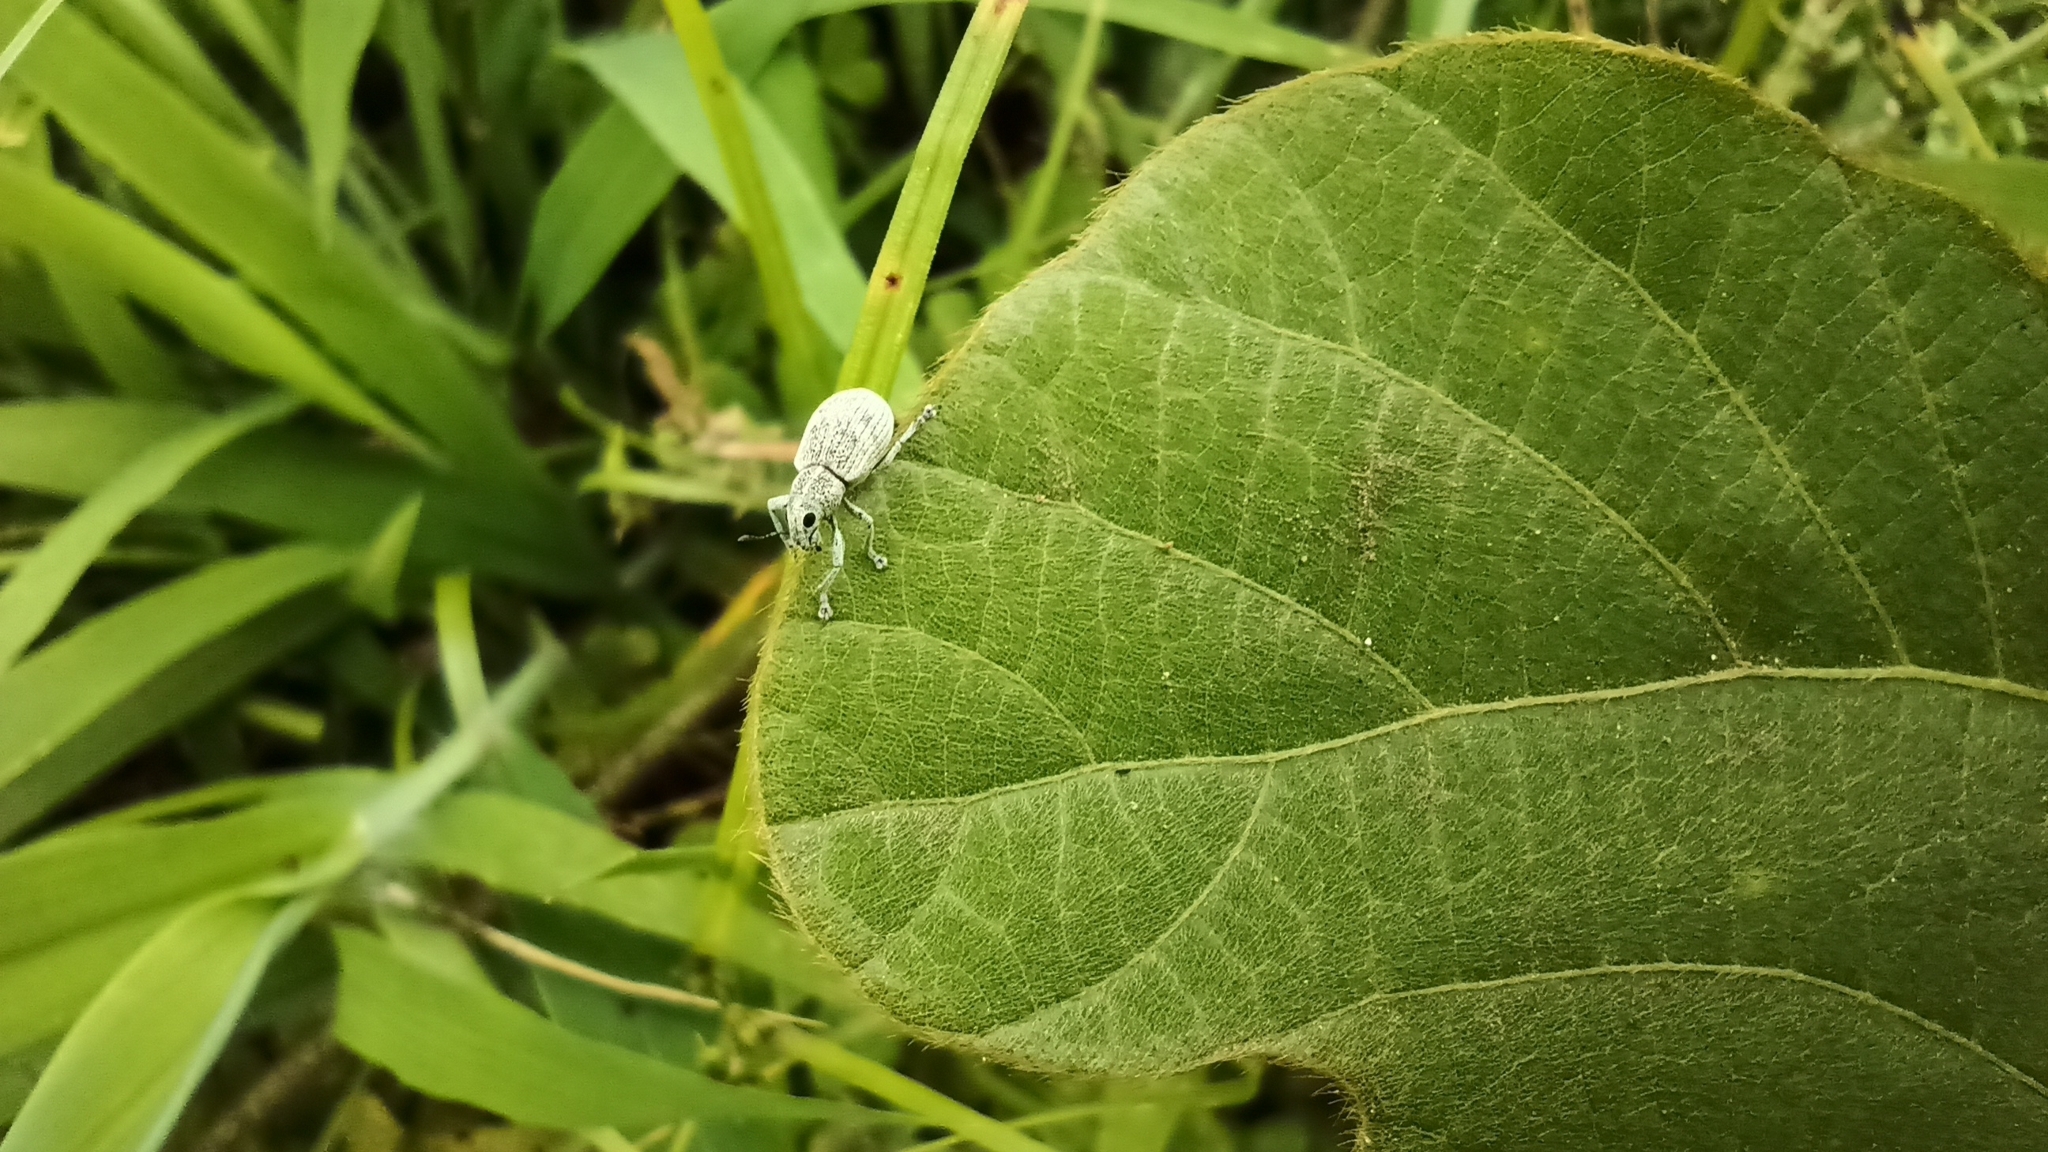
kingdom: Animalia
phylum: Arthropoda
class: Insecta
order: Coleoptera
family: Curculionidae
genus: Eugnathus
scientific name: Eugnathus distinctus
